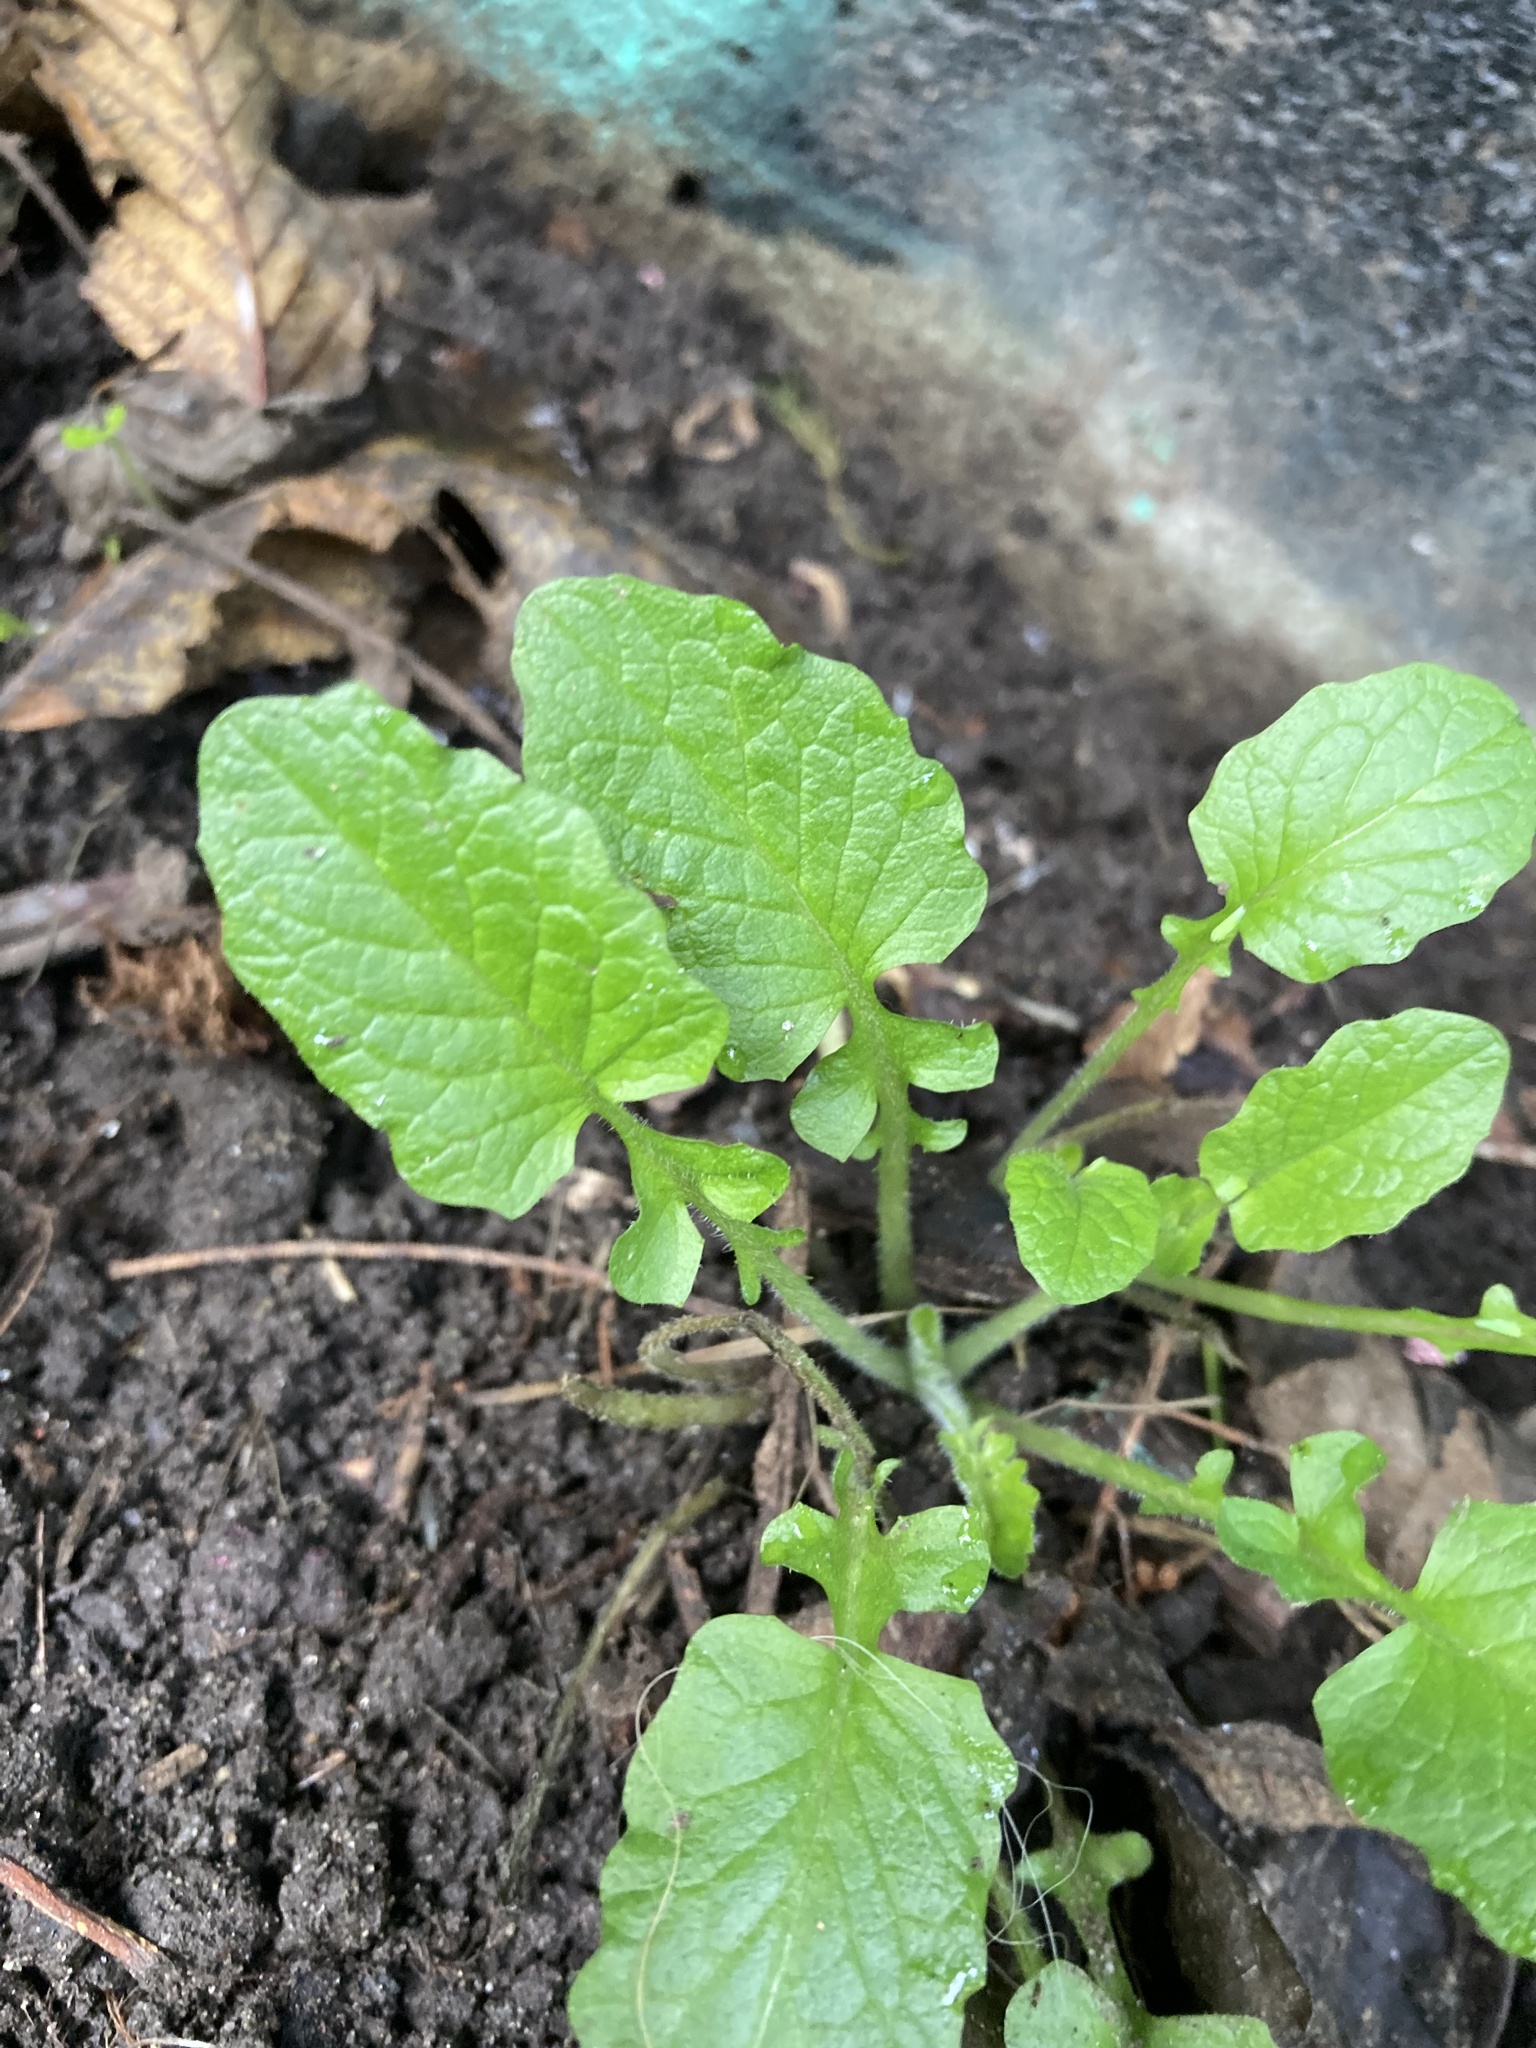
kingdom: Plantae
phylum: Tracheophyta
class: Magnoliopsida
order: Asterales
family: Asteraceae
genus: Lapsana
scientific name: Lapsana communis
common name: Nipplewort
